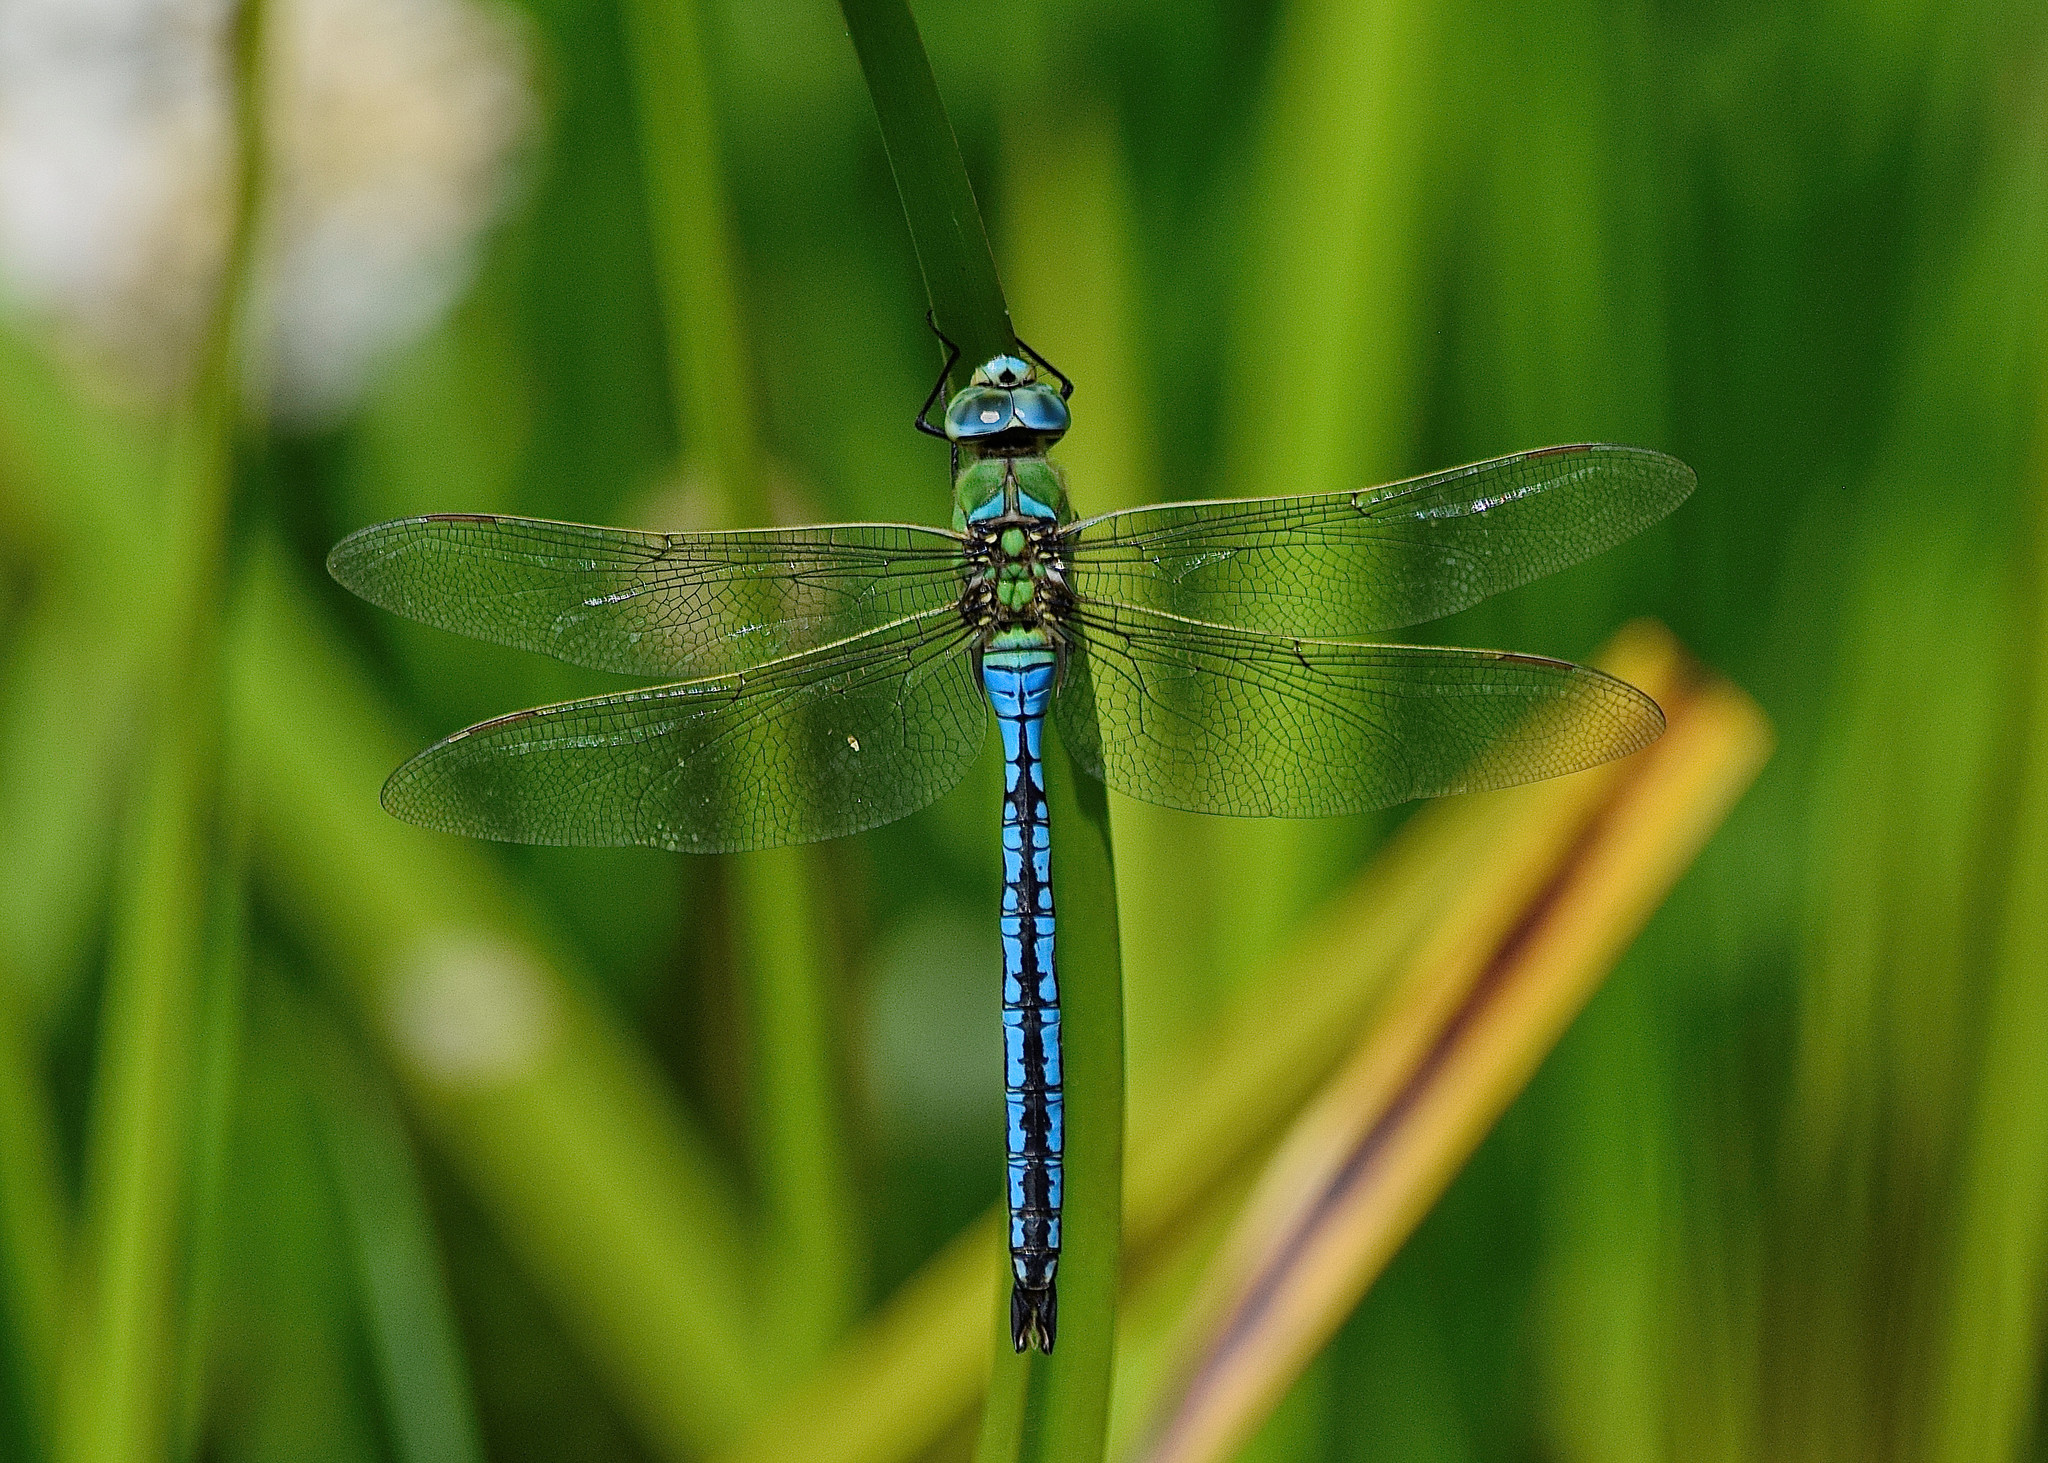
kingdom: Animalia
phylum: Arthropoda
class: Insecta
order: Odonata
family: Aeshnidae
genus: Anax
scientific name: Anax imperator
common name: Emperor dragonfly
